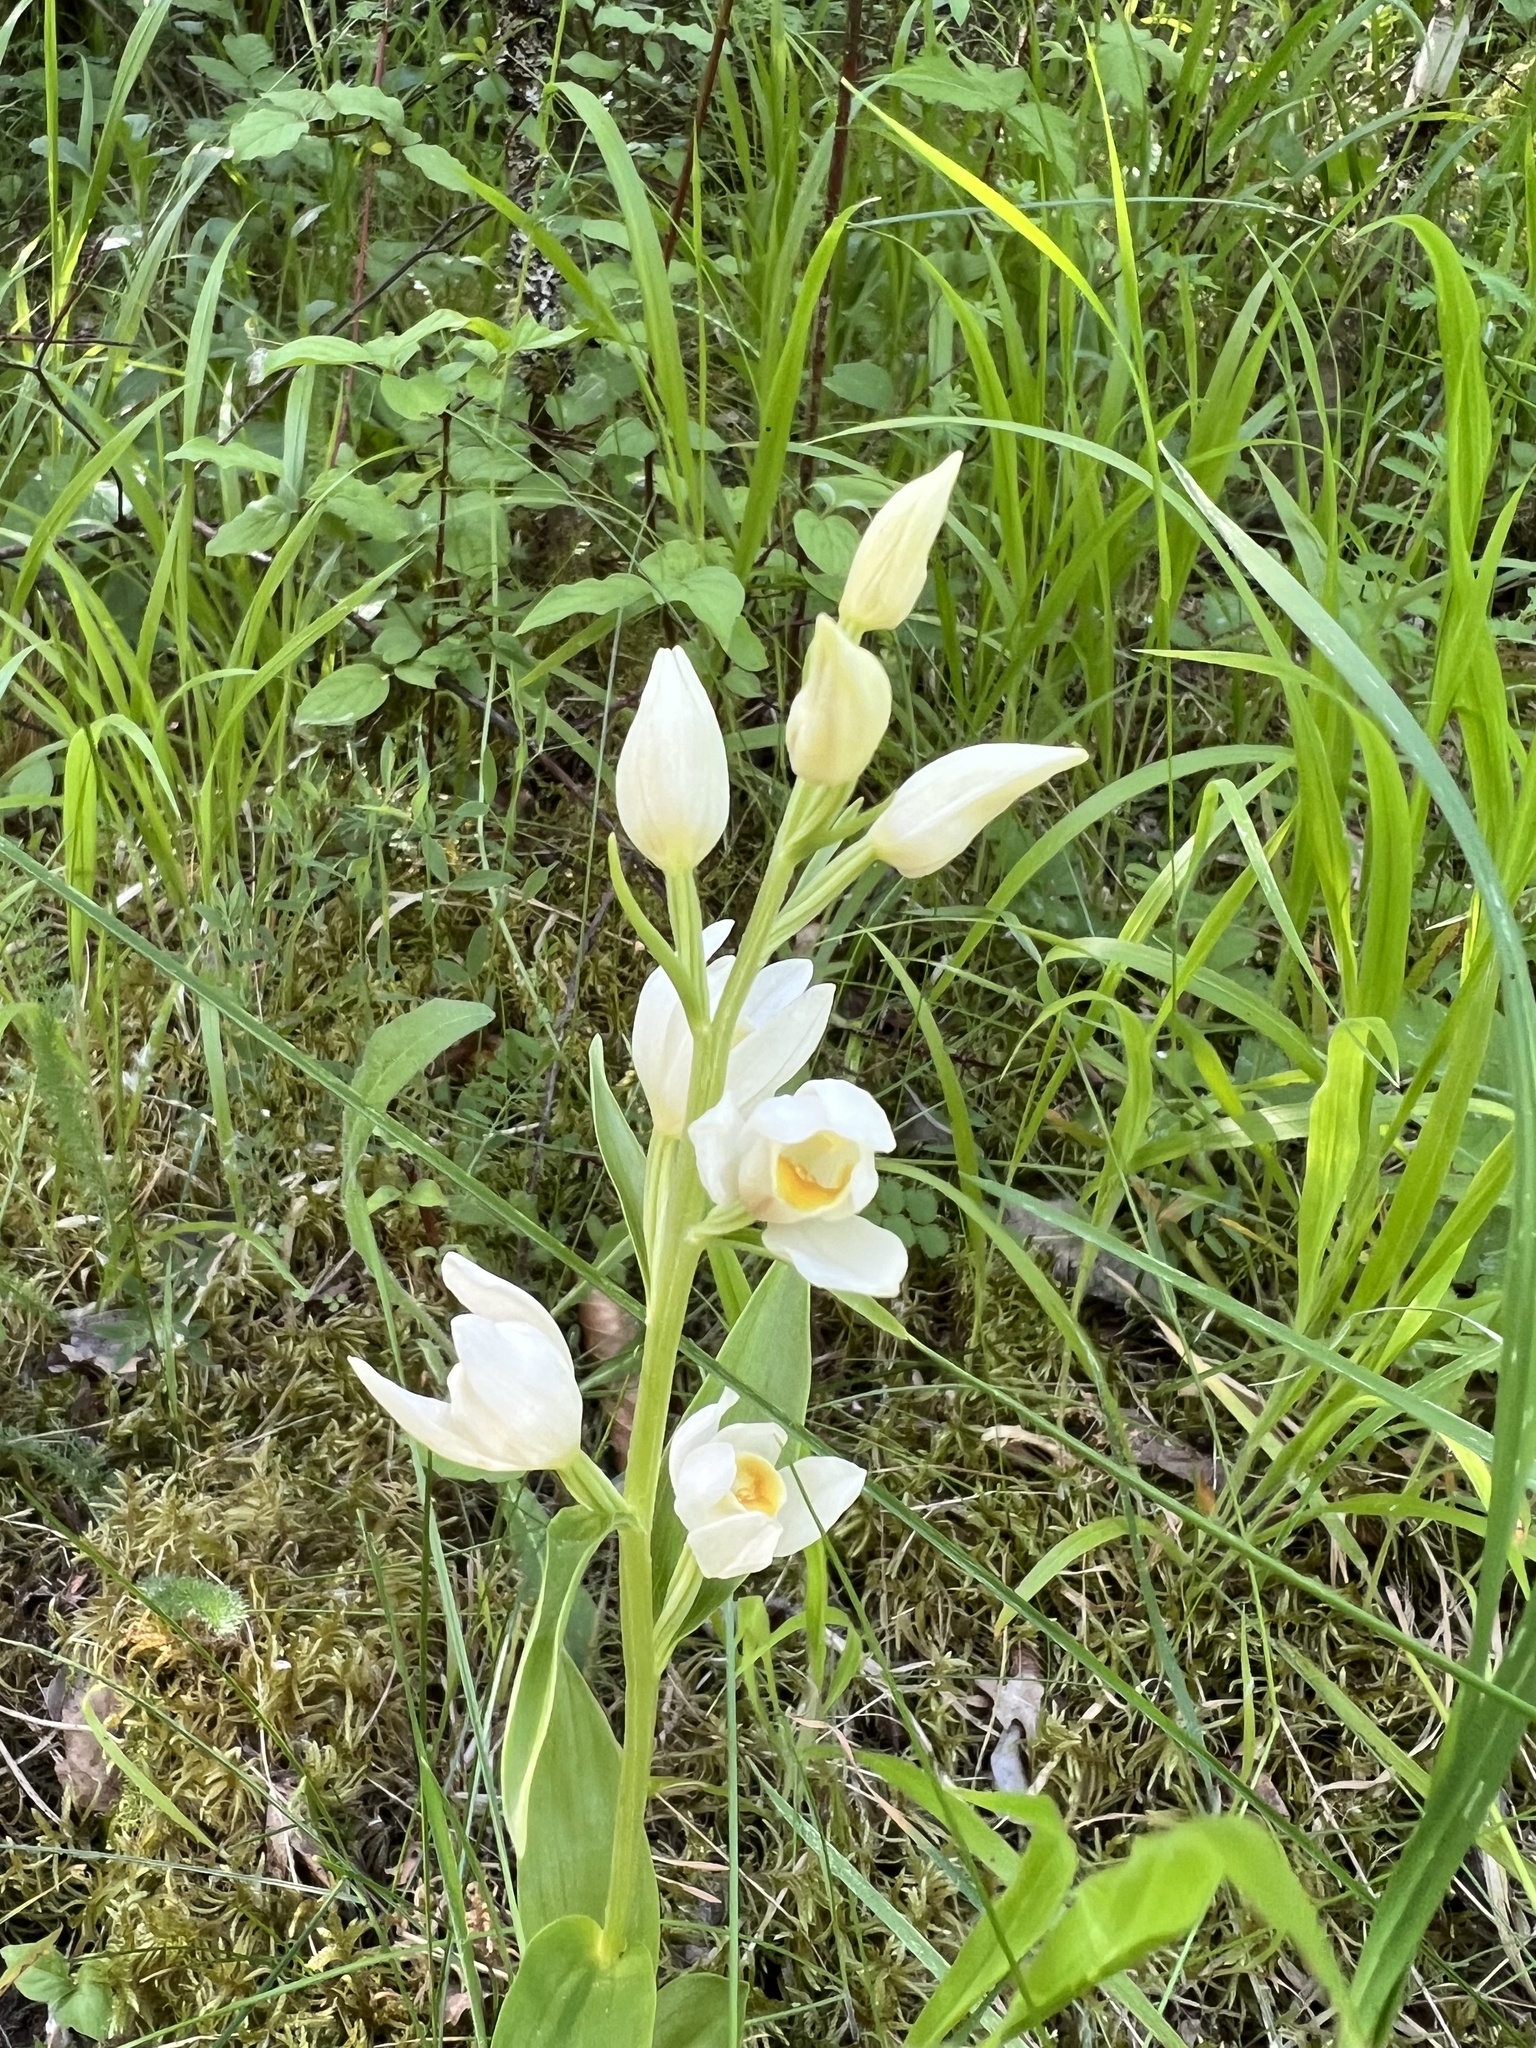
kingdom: Plantae
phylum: Tracheophyta
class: Liliopsida
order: Asparagales
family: Orchidaceae
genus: Cephalanthera
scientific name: Cephalanthera damasonium
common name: White helleborine
